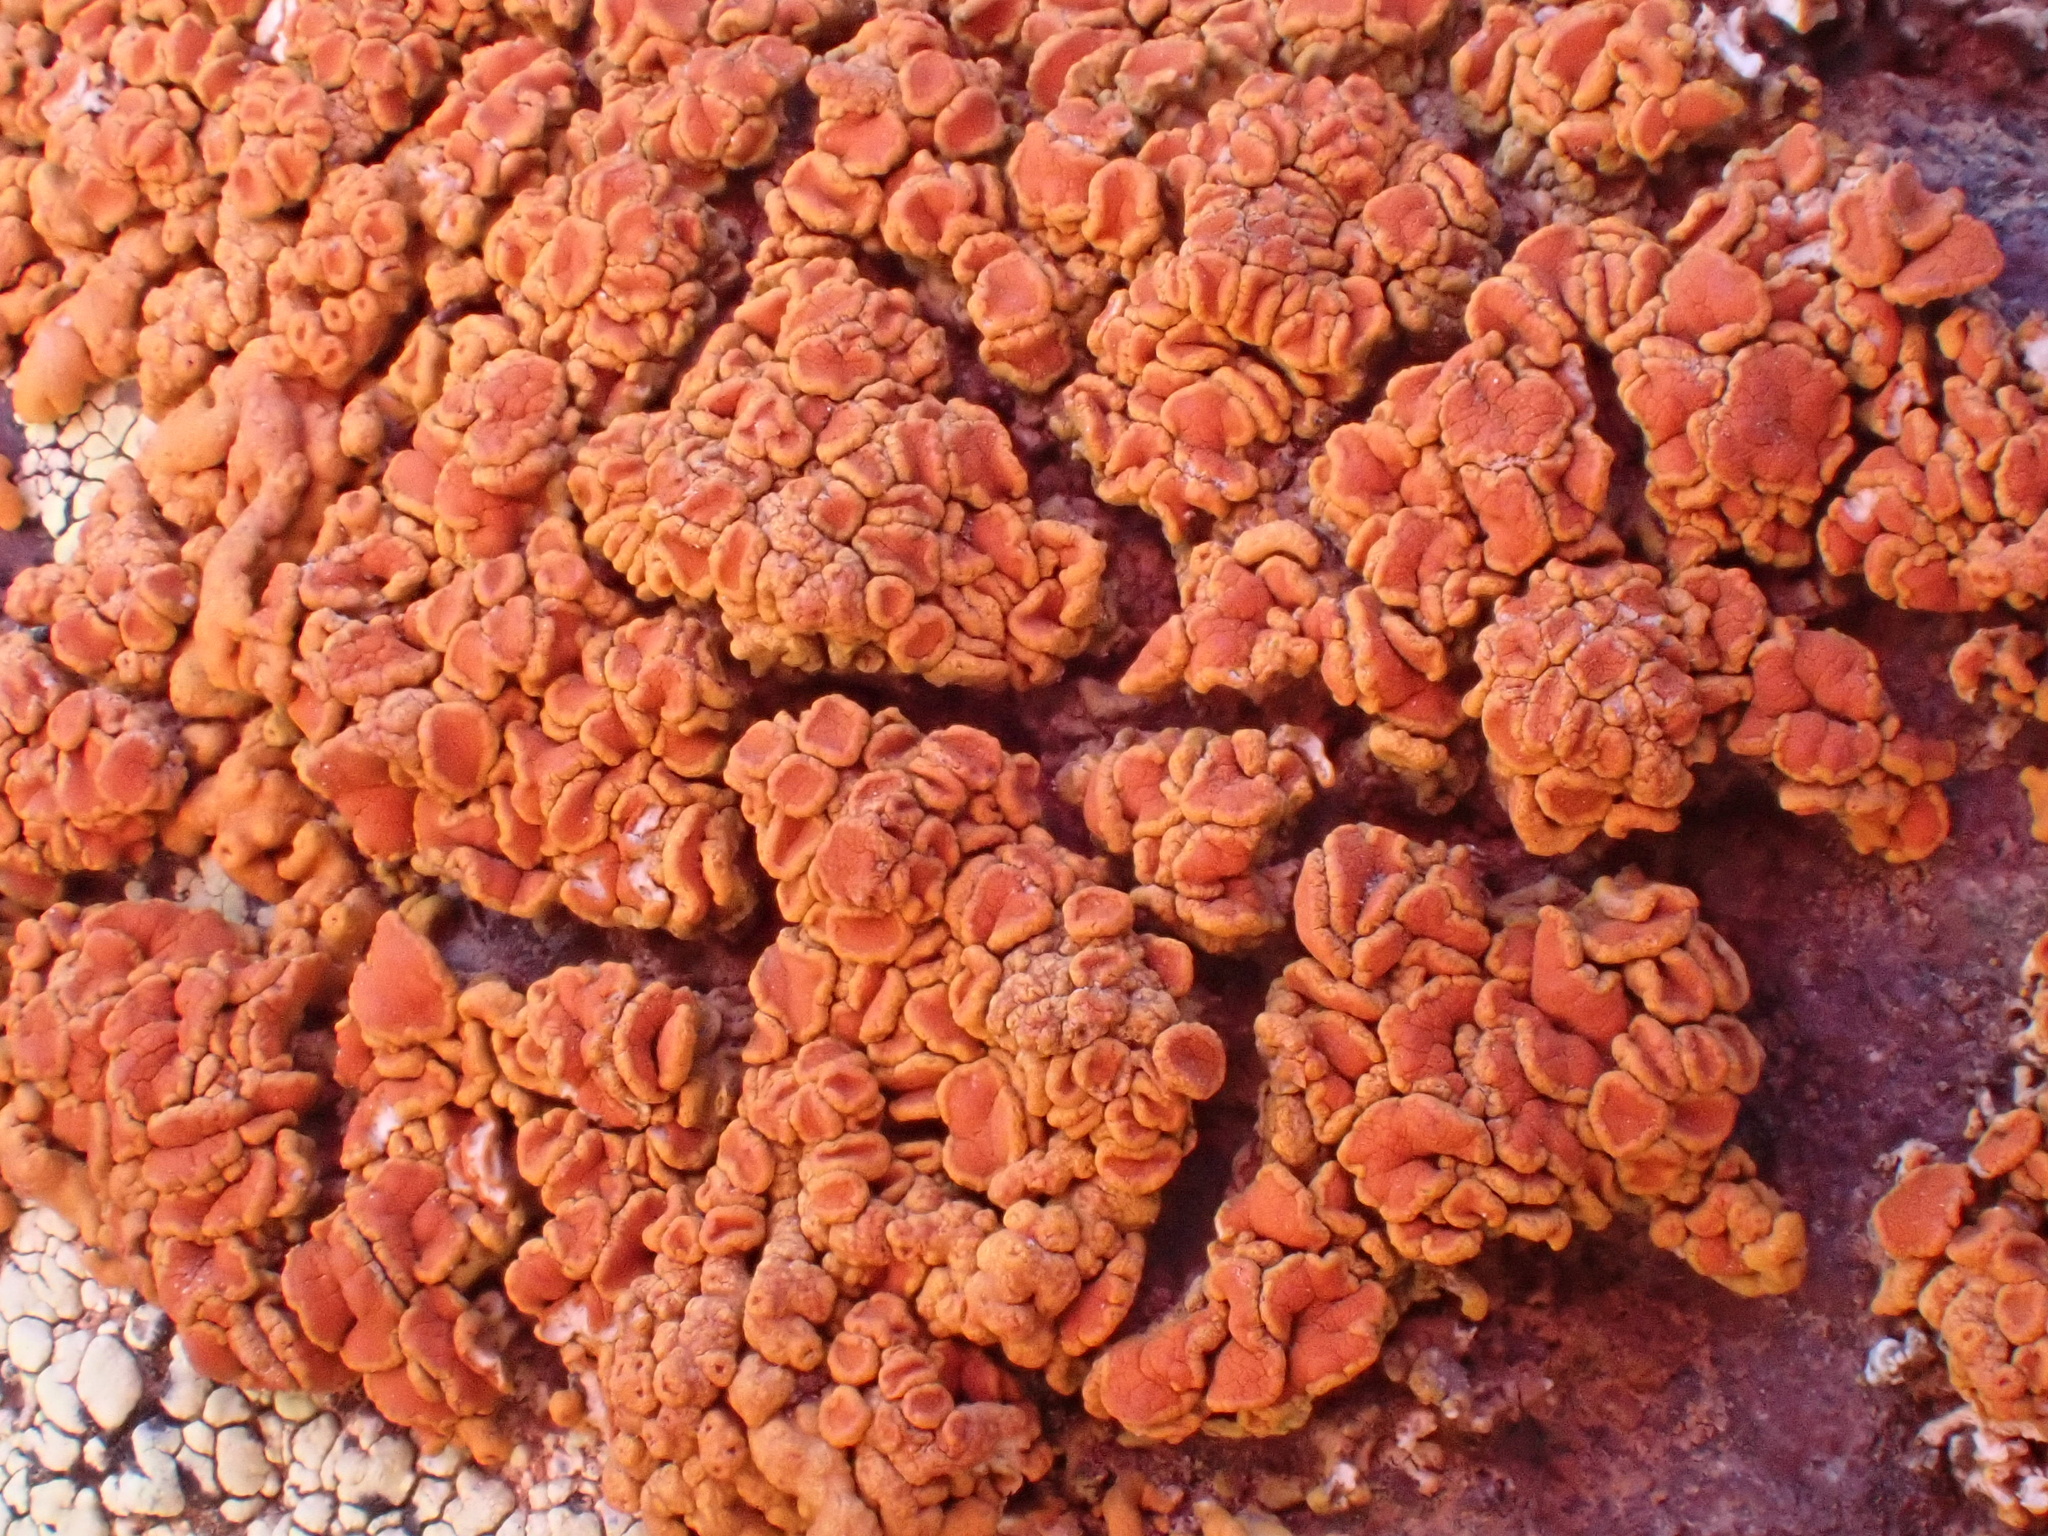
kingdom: Fungi
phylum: Ascomycota
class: Lecanoromycetes
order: Teloschistales
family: Teloschistaceae
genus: Xanthoria
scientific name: Xanthoria elegans
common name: Elegant sunburst lichen
